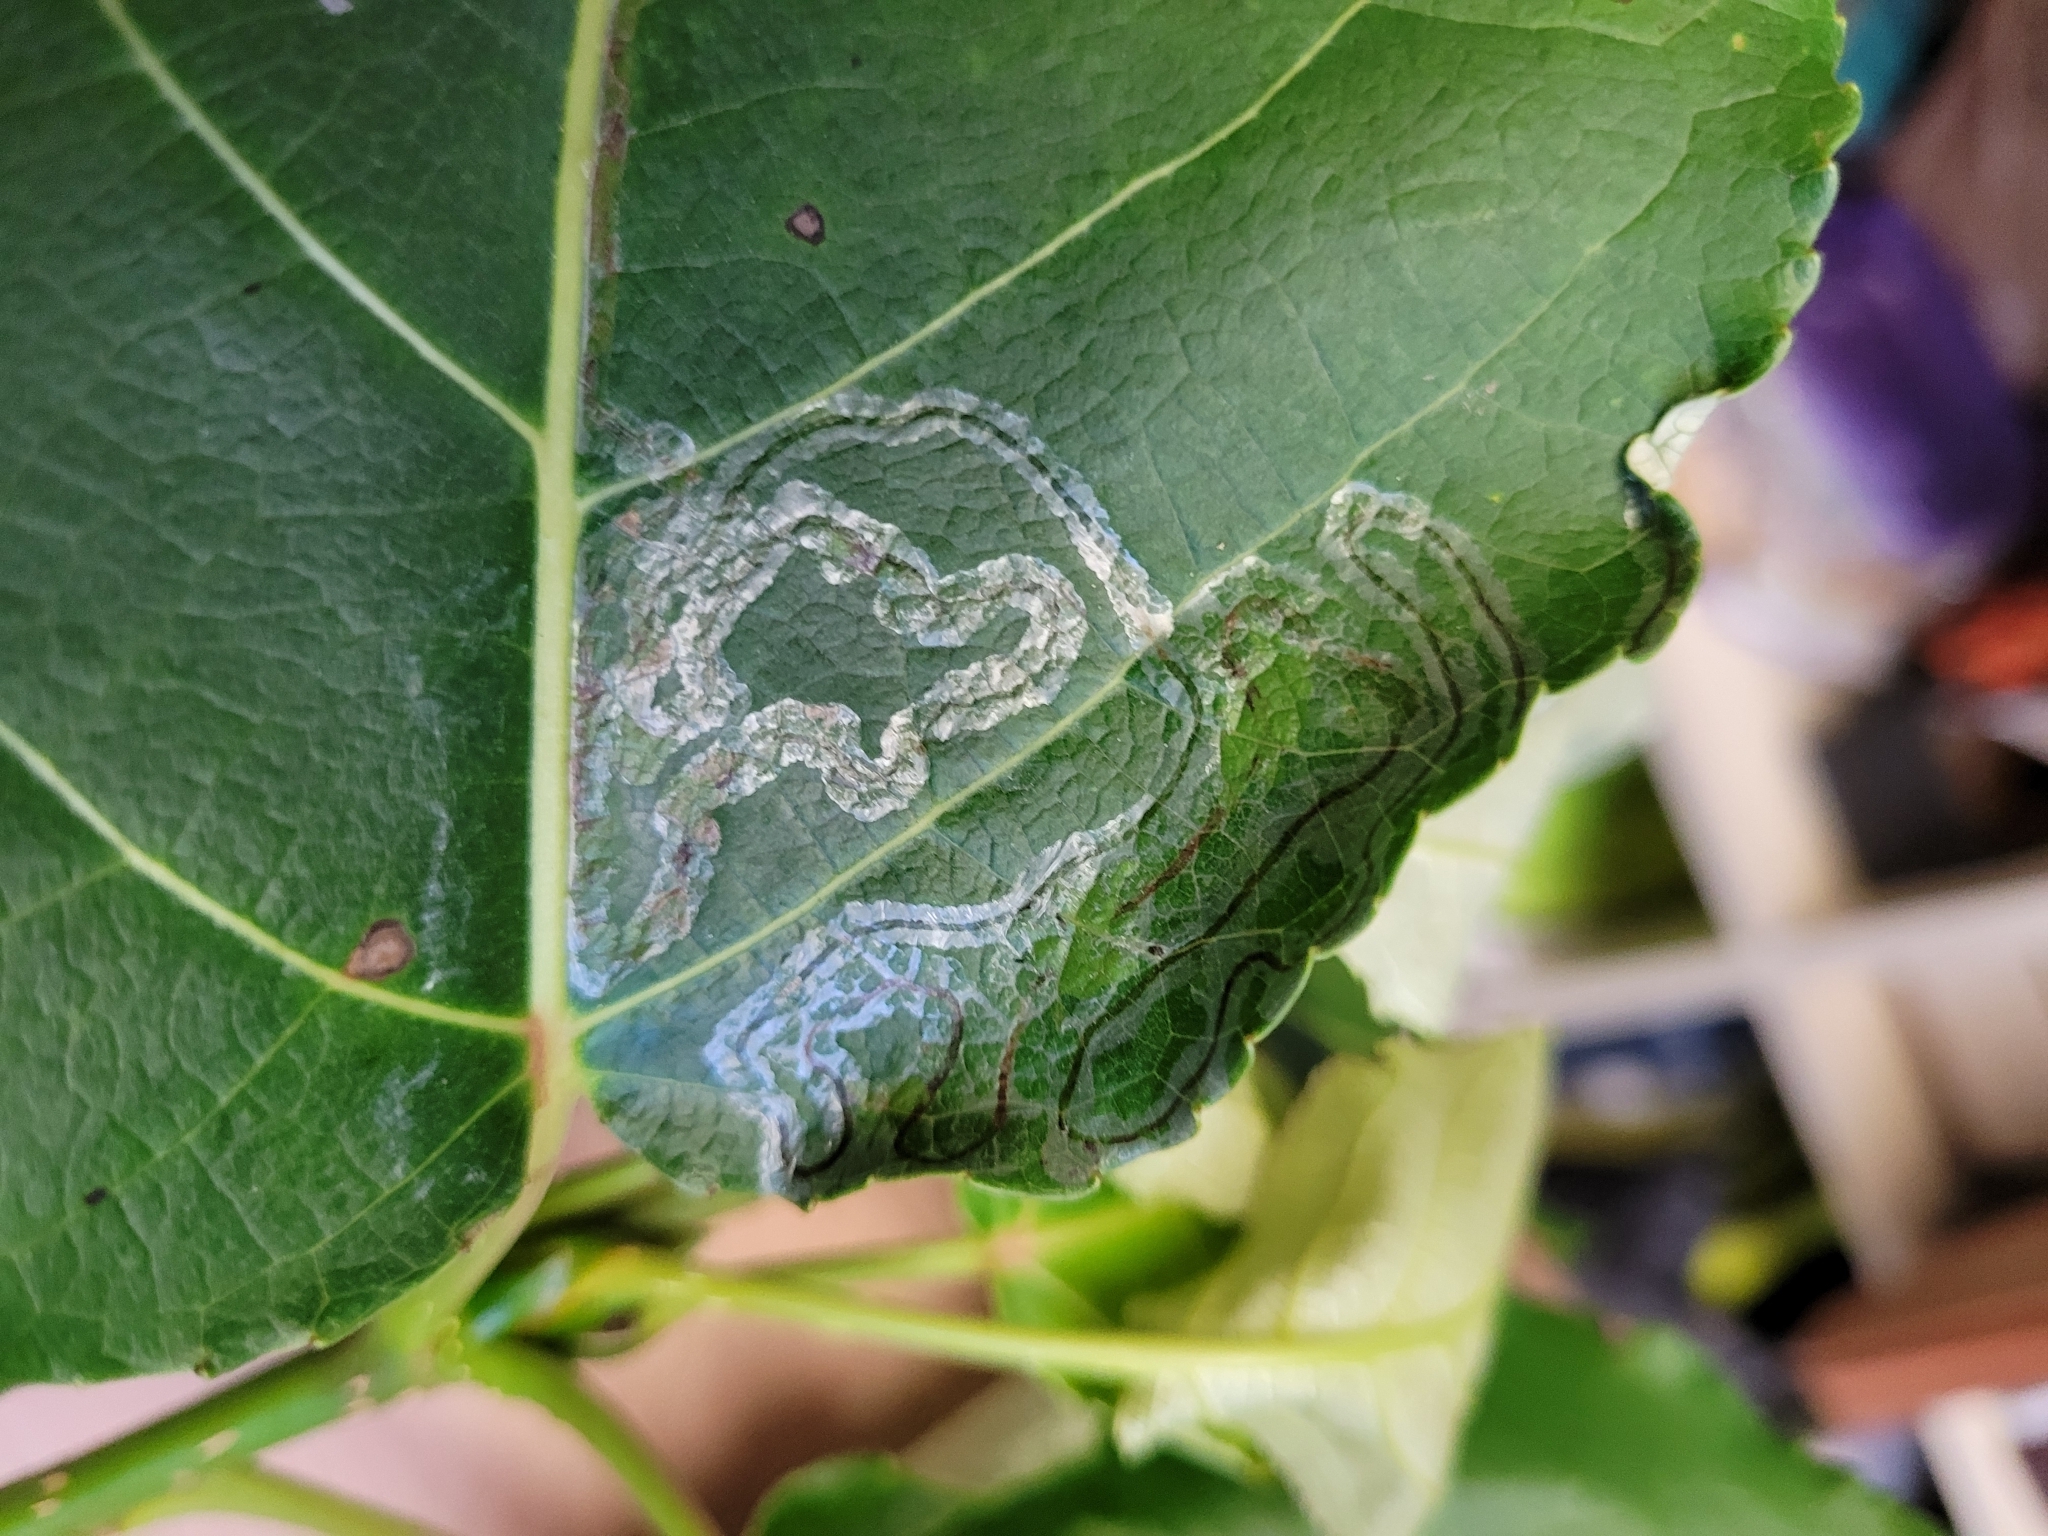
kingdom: Animalia
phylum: Arthropoda
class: Insecta
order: Lepidoptera
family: Gracillariidae
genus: Phyllocnistis
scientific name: Phyllocnistis populiella
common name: Aspen serpentine leafminer moth
